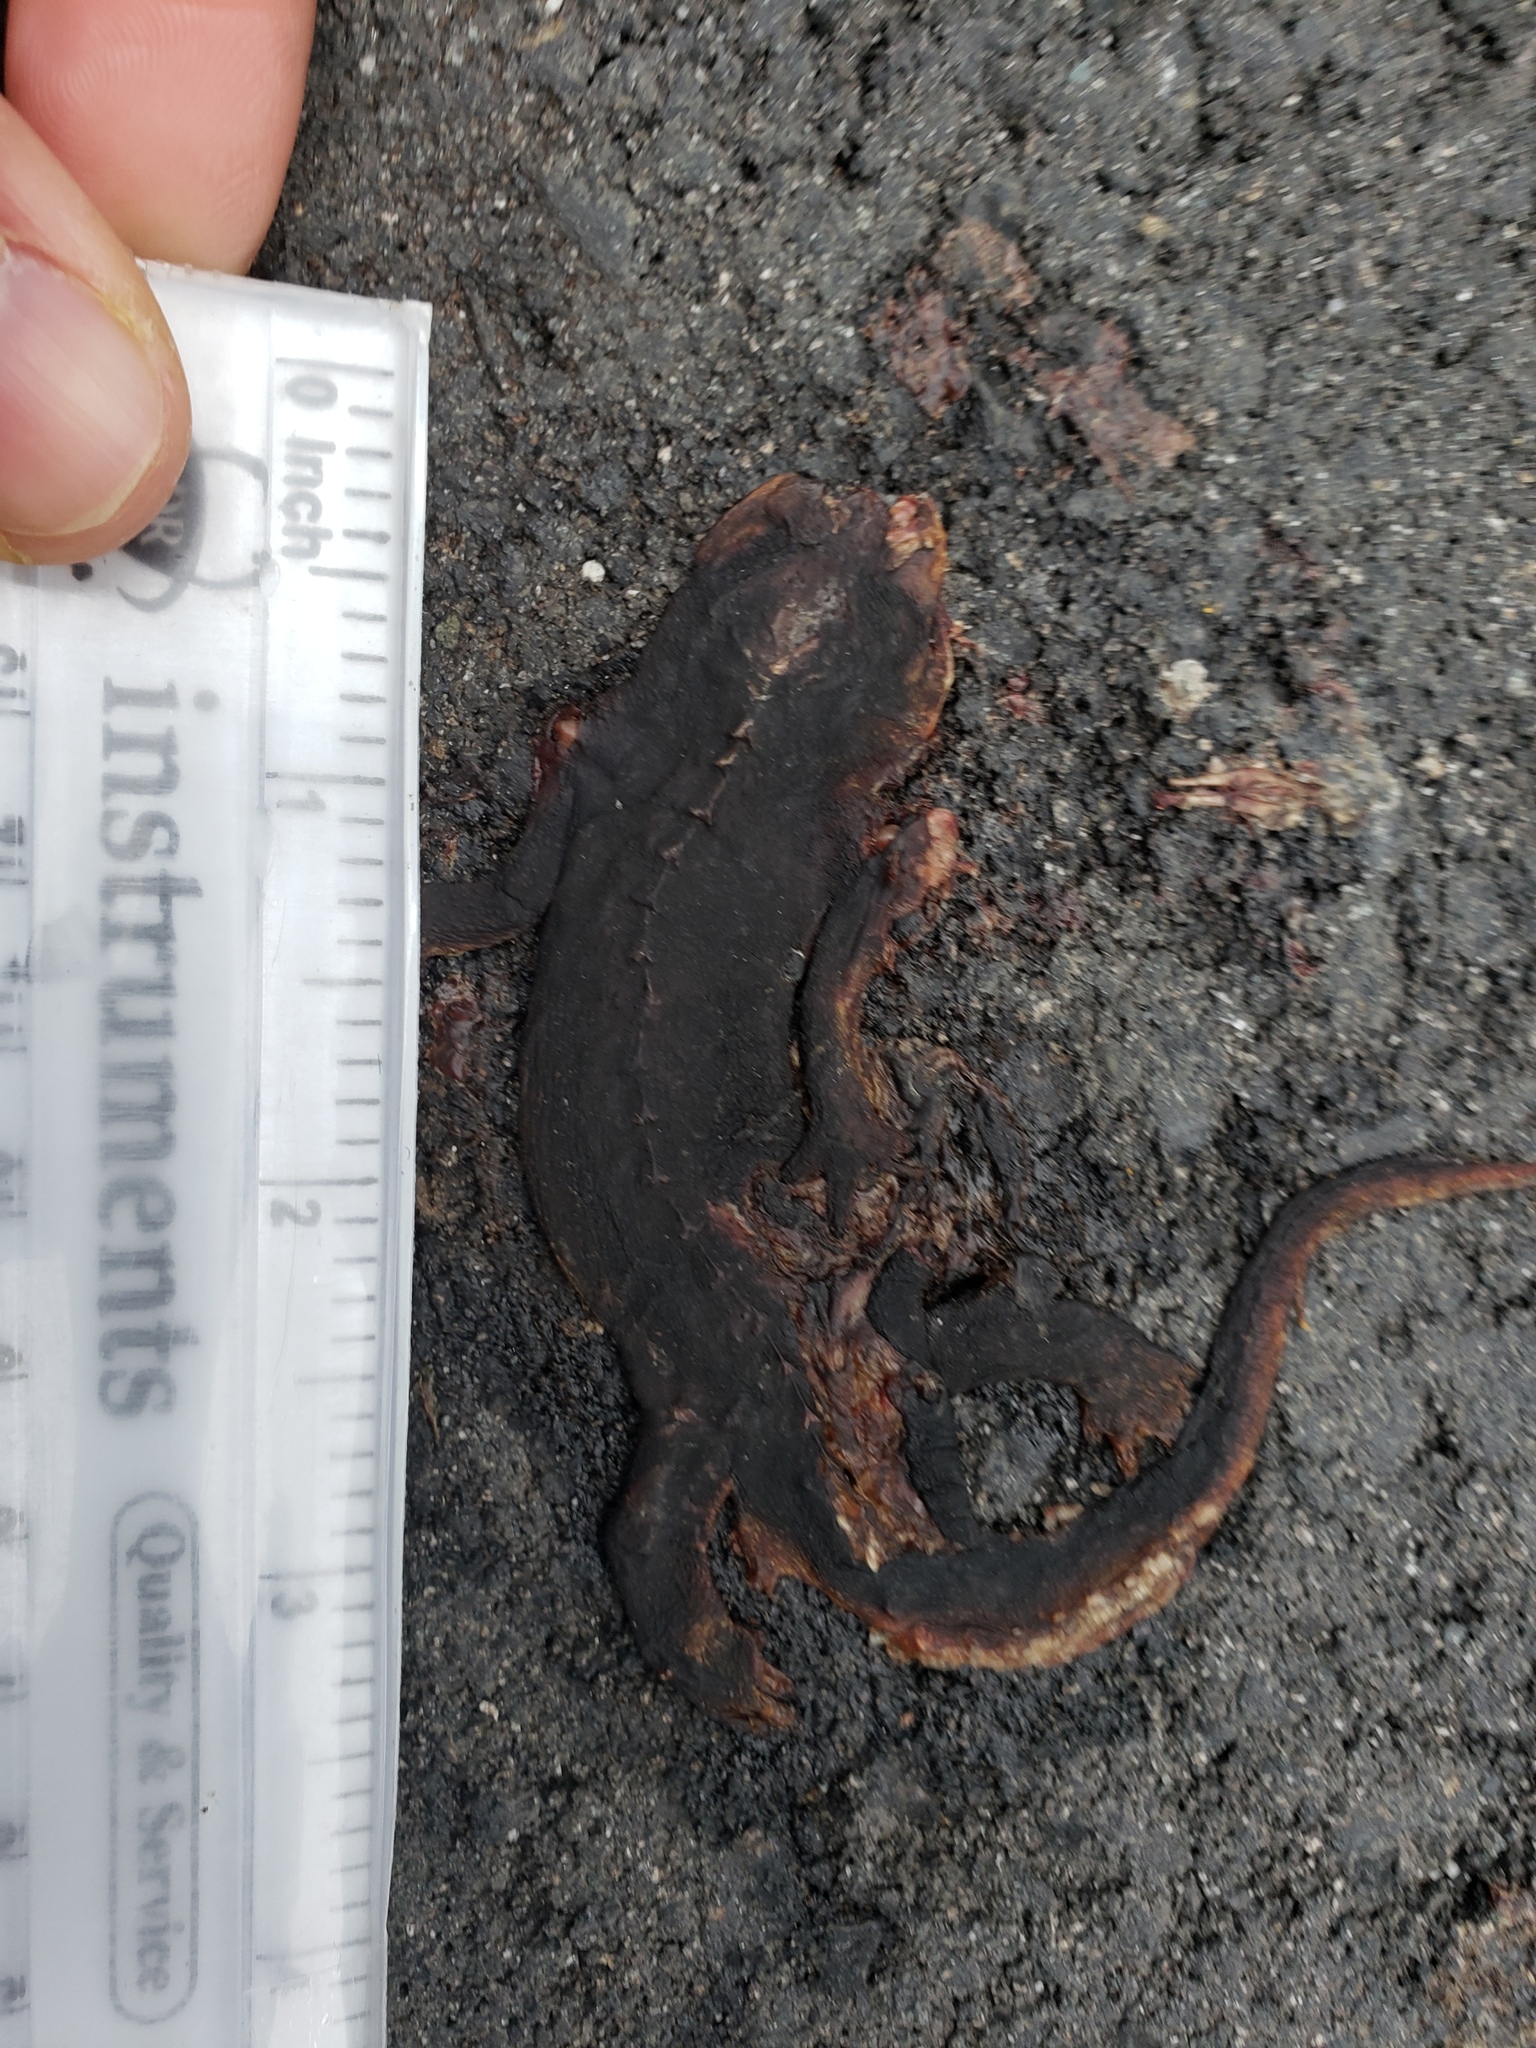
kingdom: Animalia
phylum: Chordata
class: Amphibia
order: Caudata
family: Salamandridae
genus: Taricha
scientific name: Taricha
